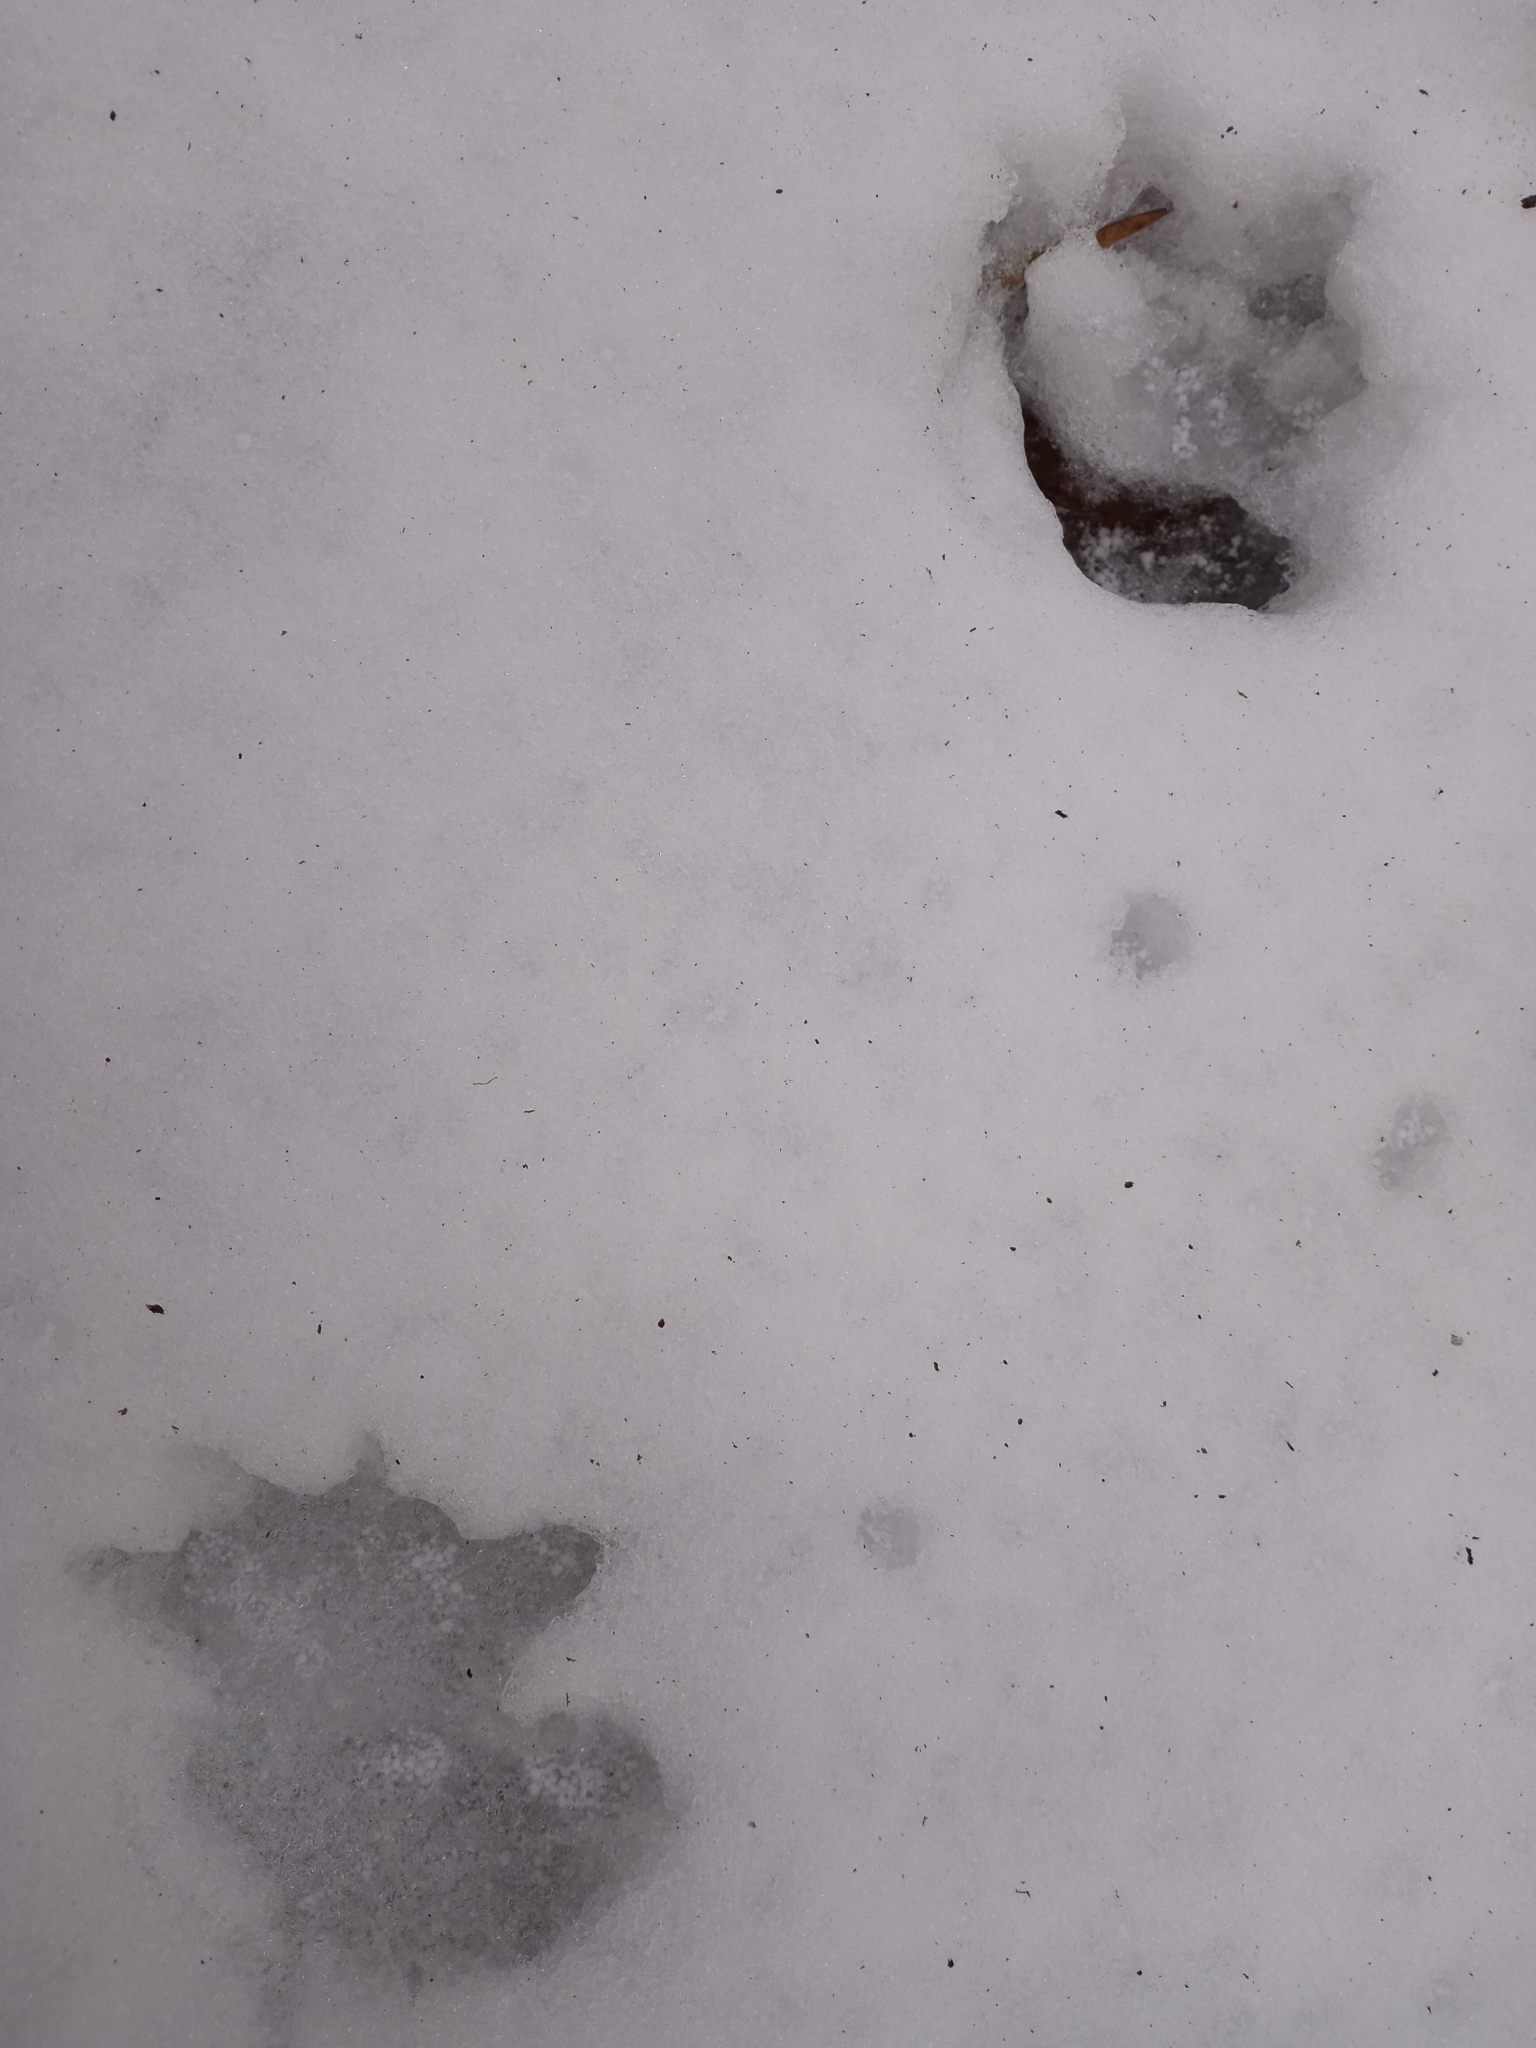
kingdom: Animalia
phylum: Chordata
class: Mammalia
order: Didelphimorphia
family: Didelphidae
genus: Didelphis
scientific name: Didelphis virginiana
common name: Virginia opossum
